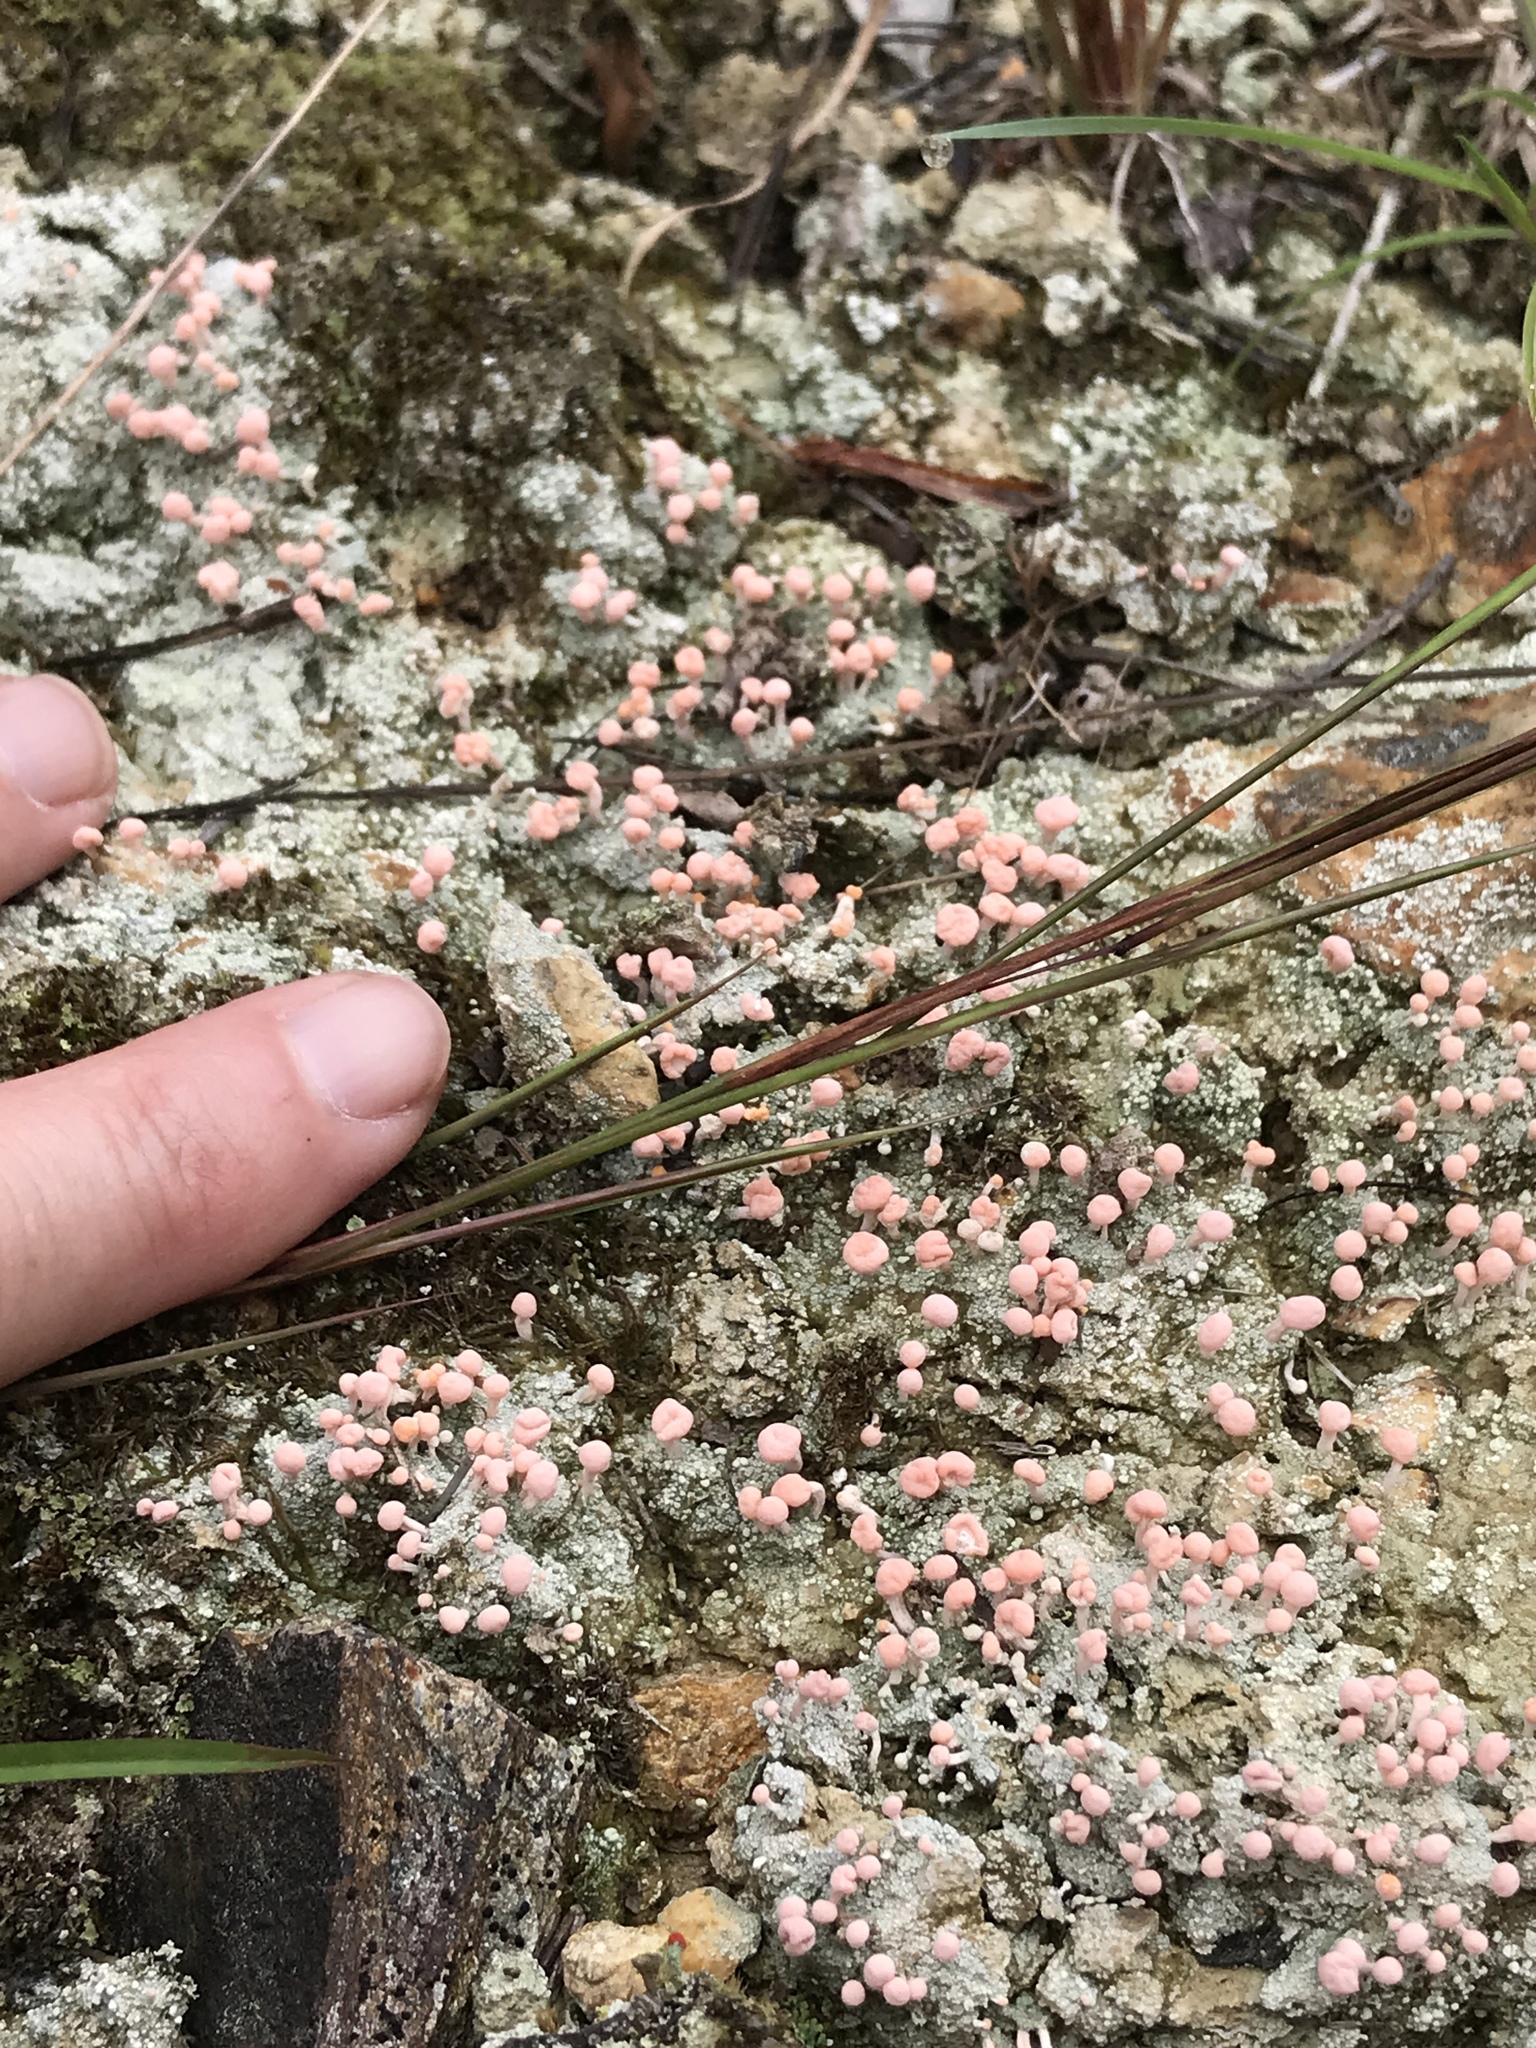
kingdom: Fungi
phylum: Ascomycota
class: Lecanoromycetes
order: Pertusariales
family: Icmadophilaceae
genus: Dibaeis
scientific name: Dibaeis baeomyces
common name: Pink earth lichen
